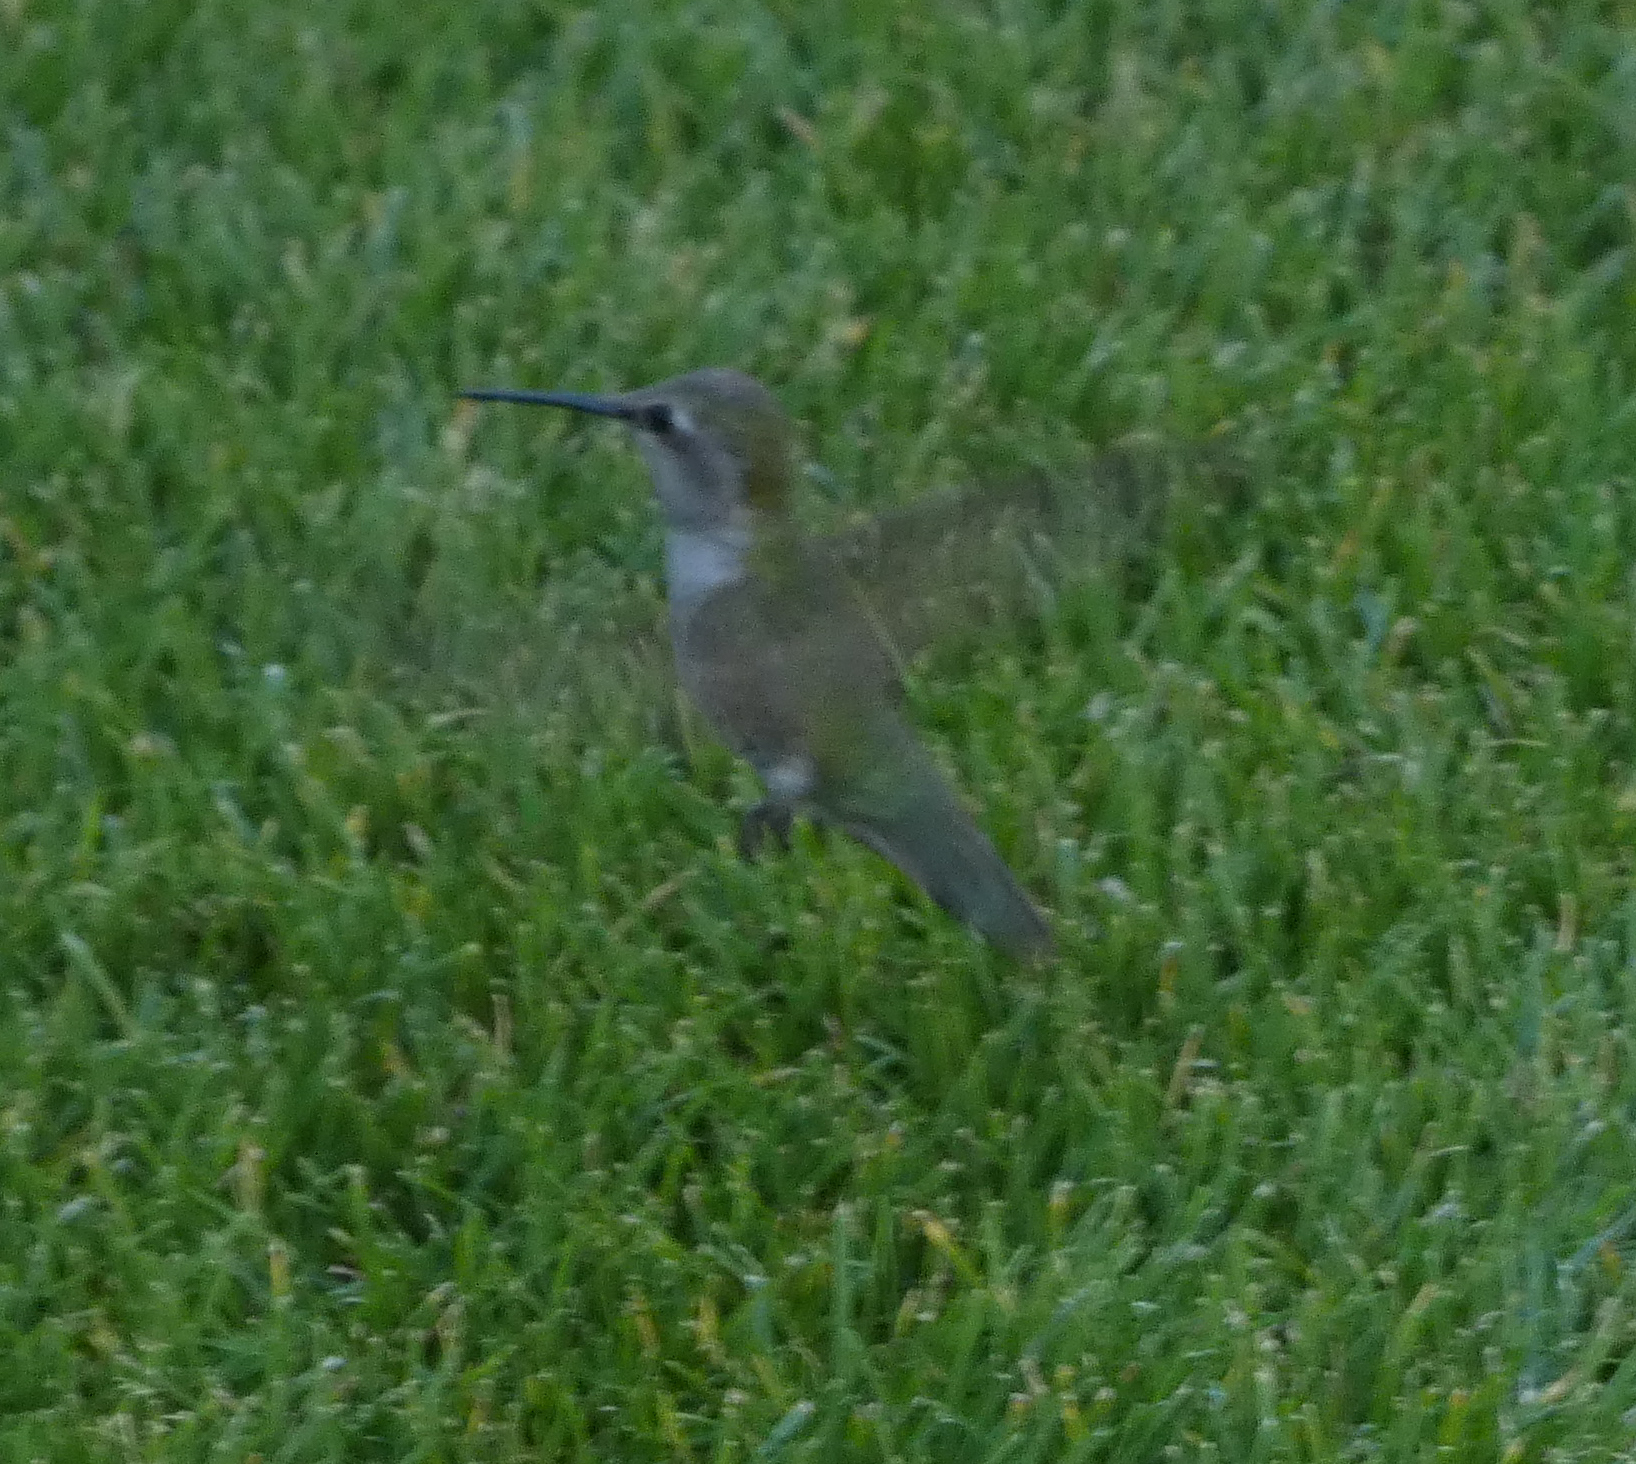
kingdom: Animalia
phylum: Chordata
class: Aves
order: Apodiformes
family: Trochilidae
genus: Calypte
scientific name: Calypte anna
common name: Anna's hummingbird
